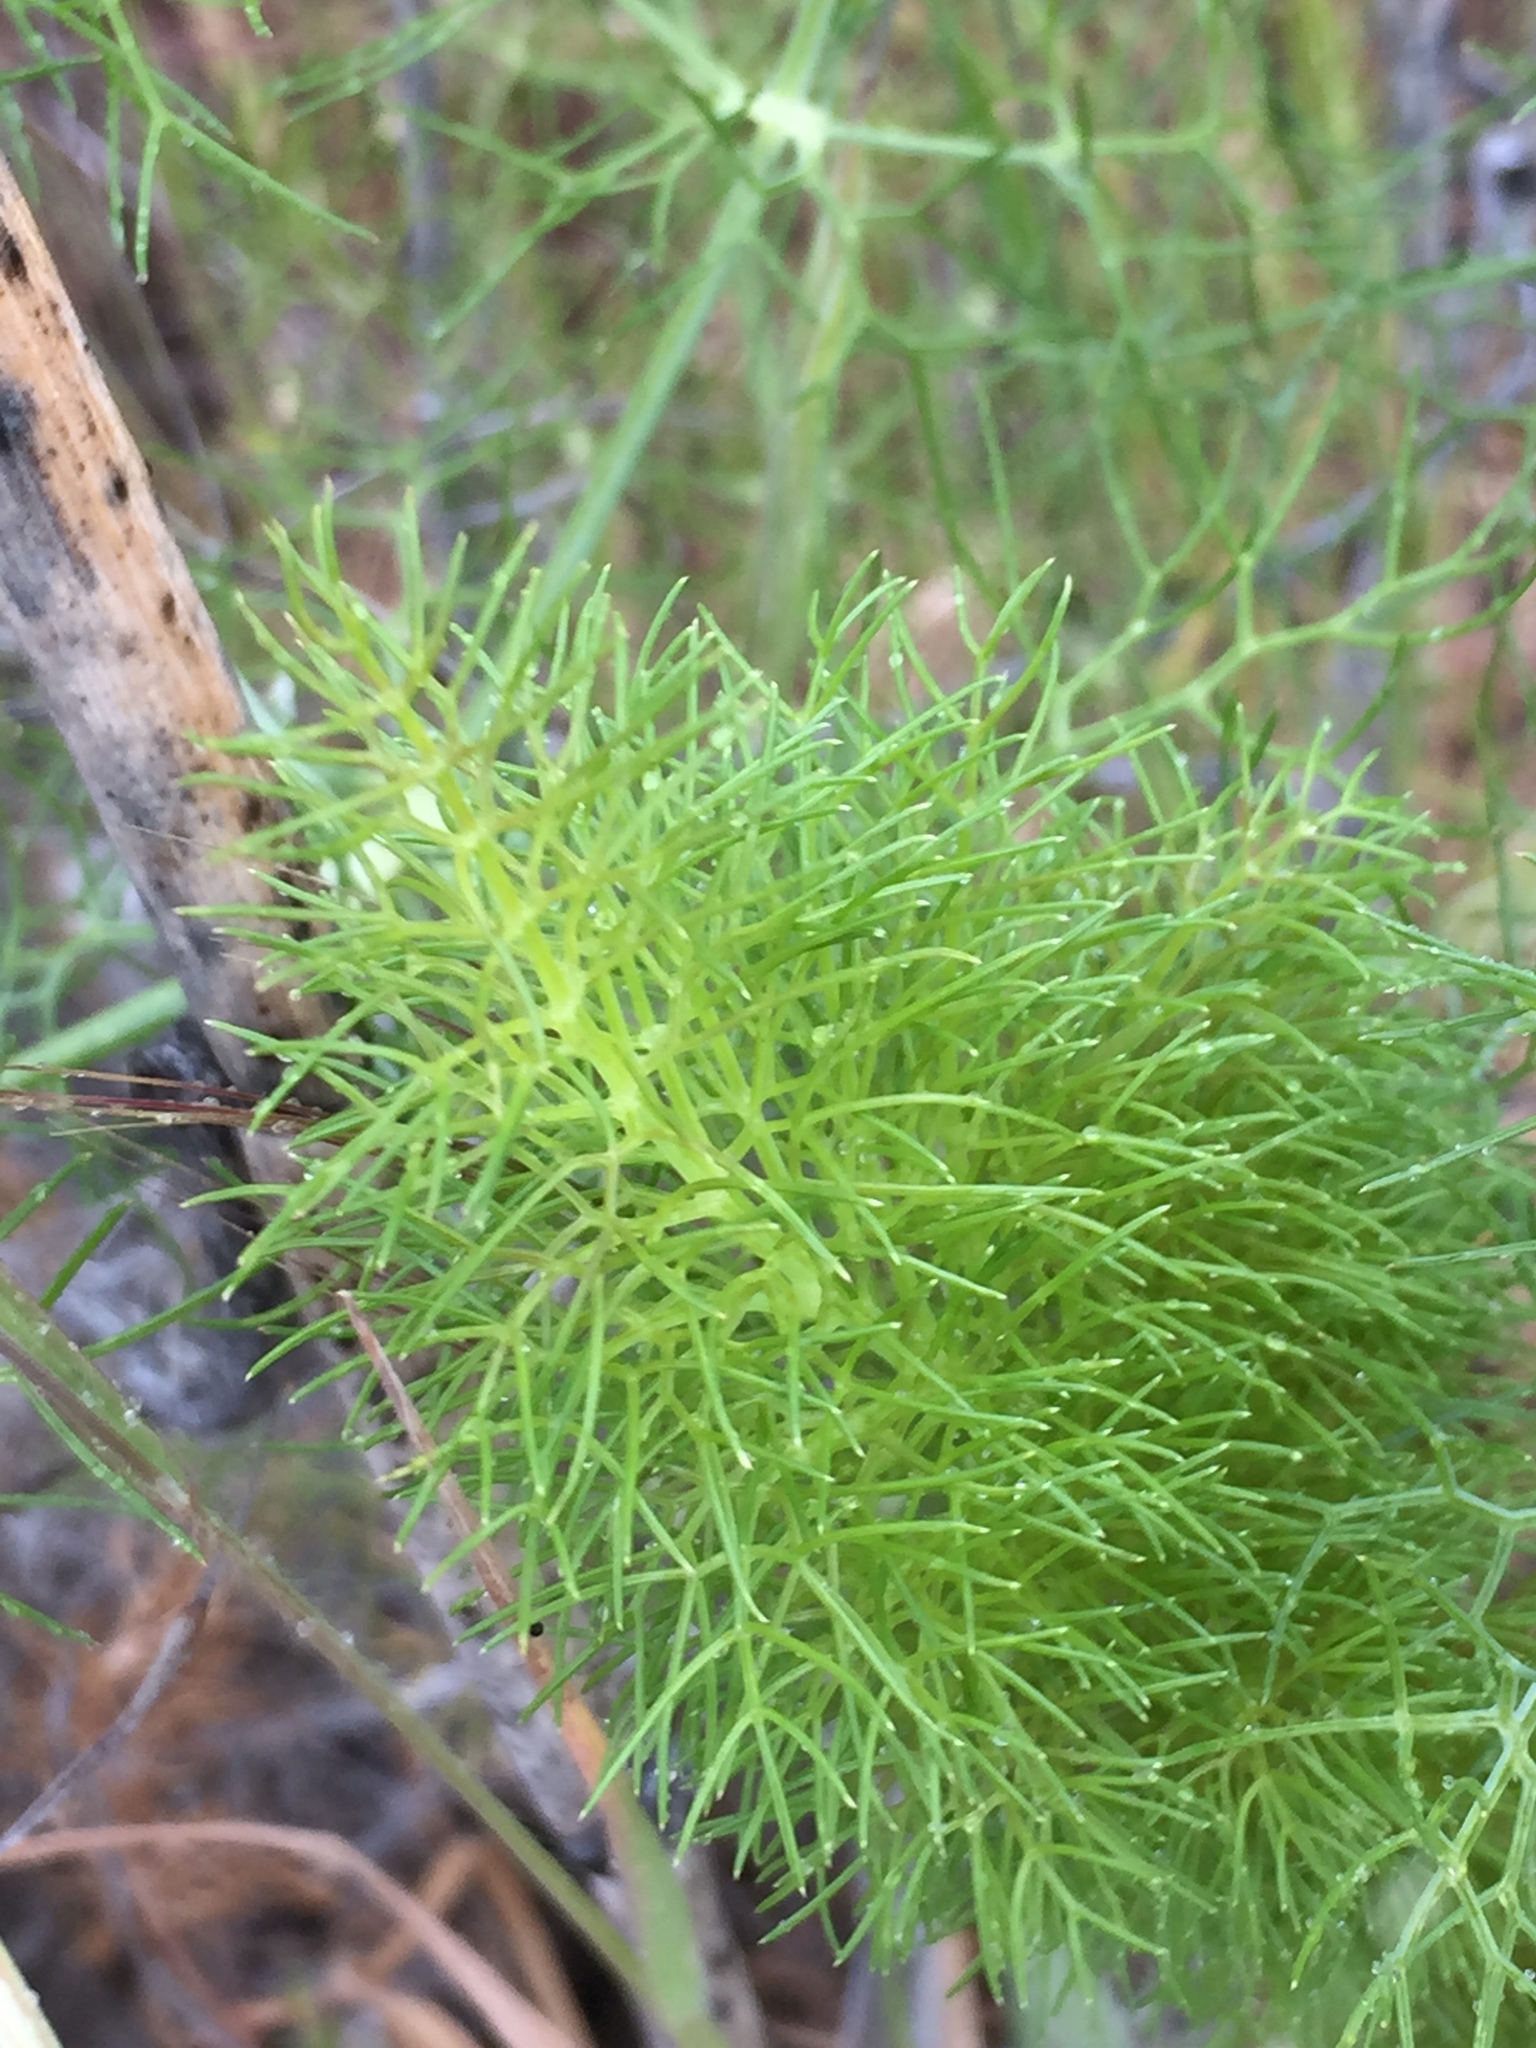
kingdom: Plantae
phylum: Tracheophyta
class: Magnoliopsida
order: Apiales
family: Apiaceae
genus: Foeniculum
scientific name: Foeniculum vulgare
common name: Fennel
